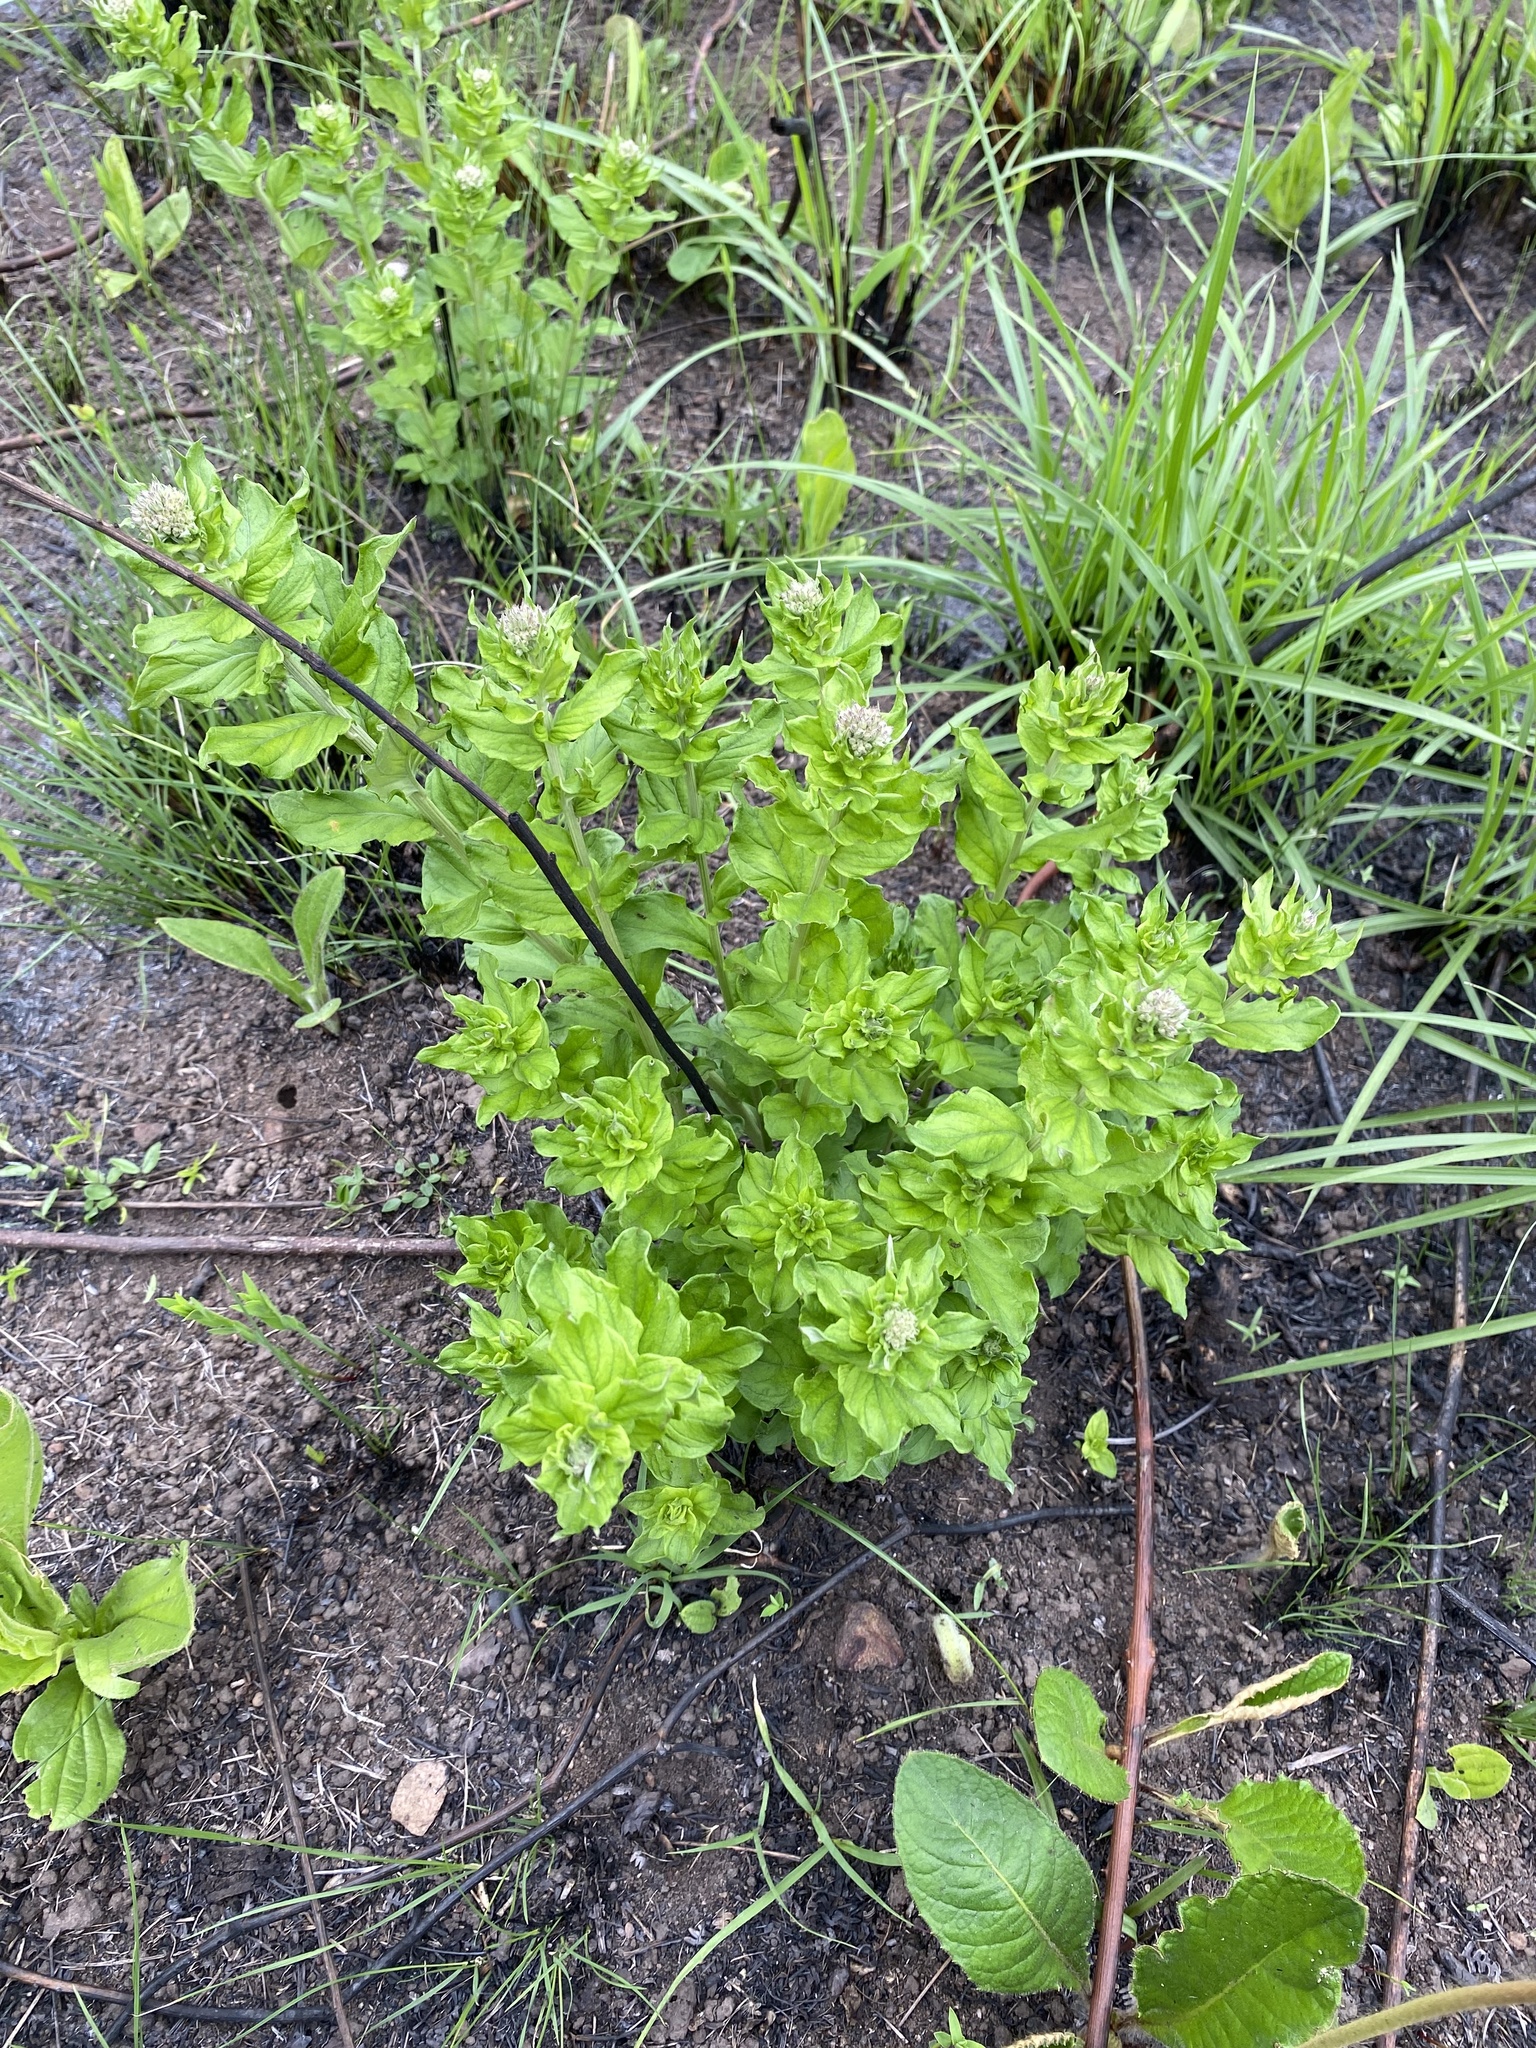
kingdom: Plantae
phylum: Tracheophyta
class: Magnoliopsida
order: Asterales
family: Asteraceae
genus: Hilliardiella
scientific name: Hilliardiella oligocephala
